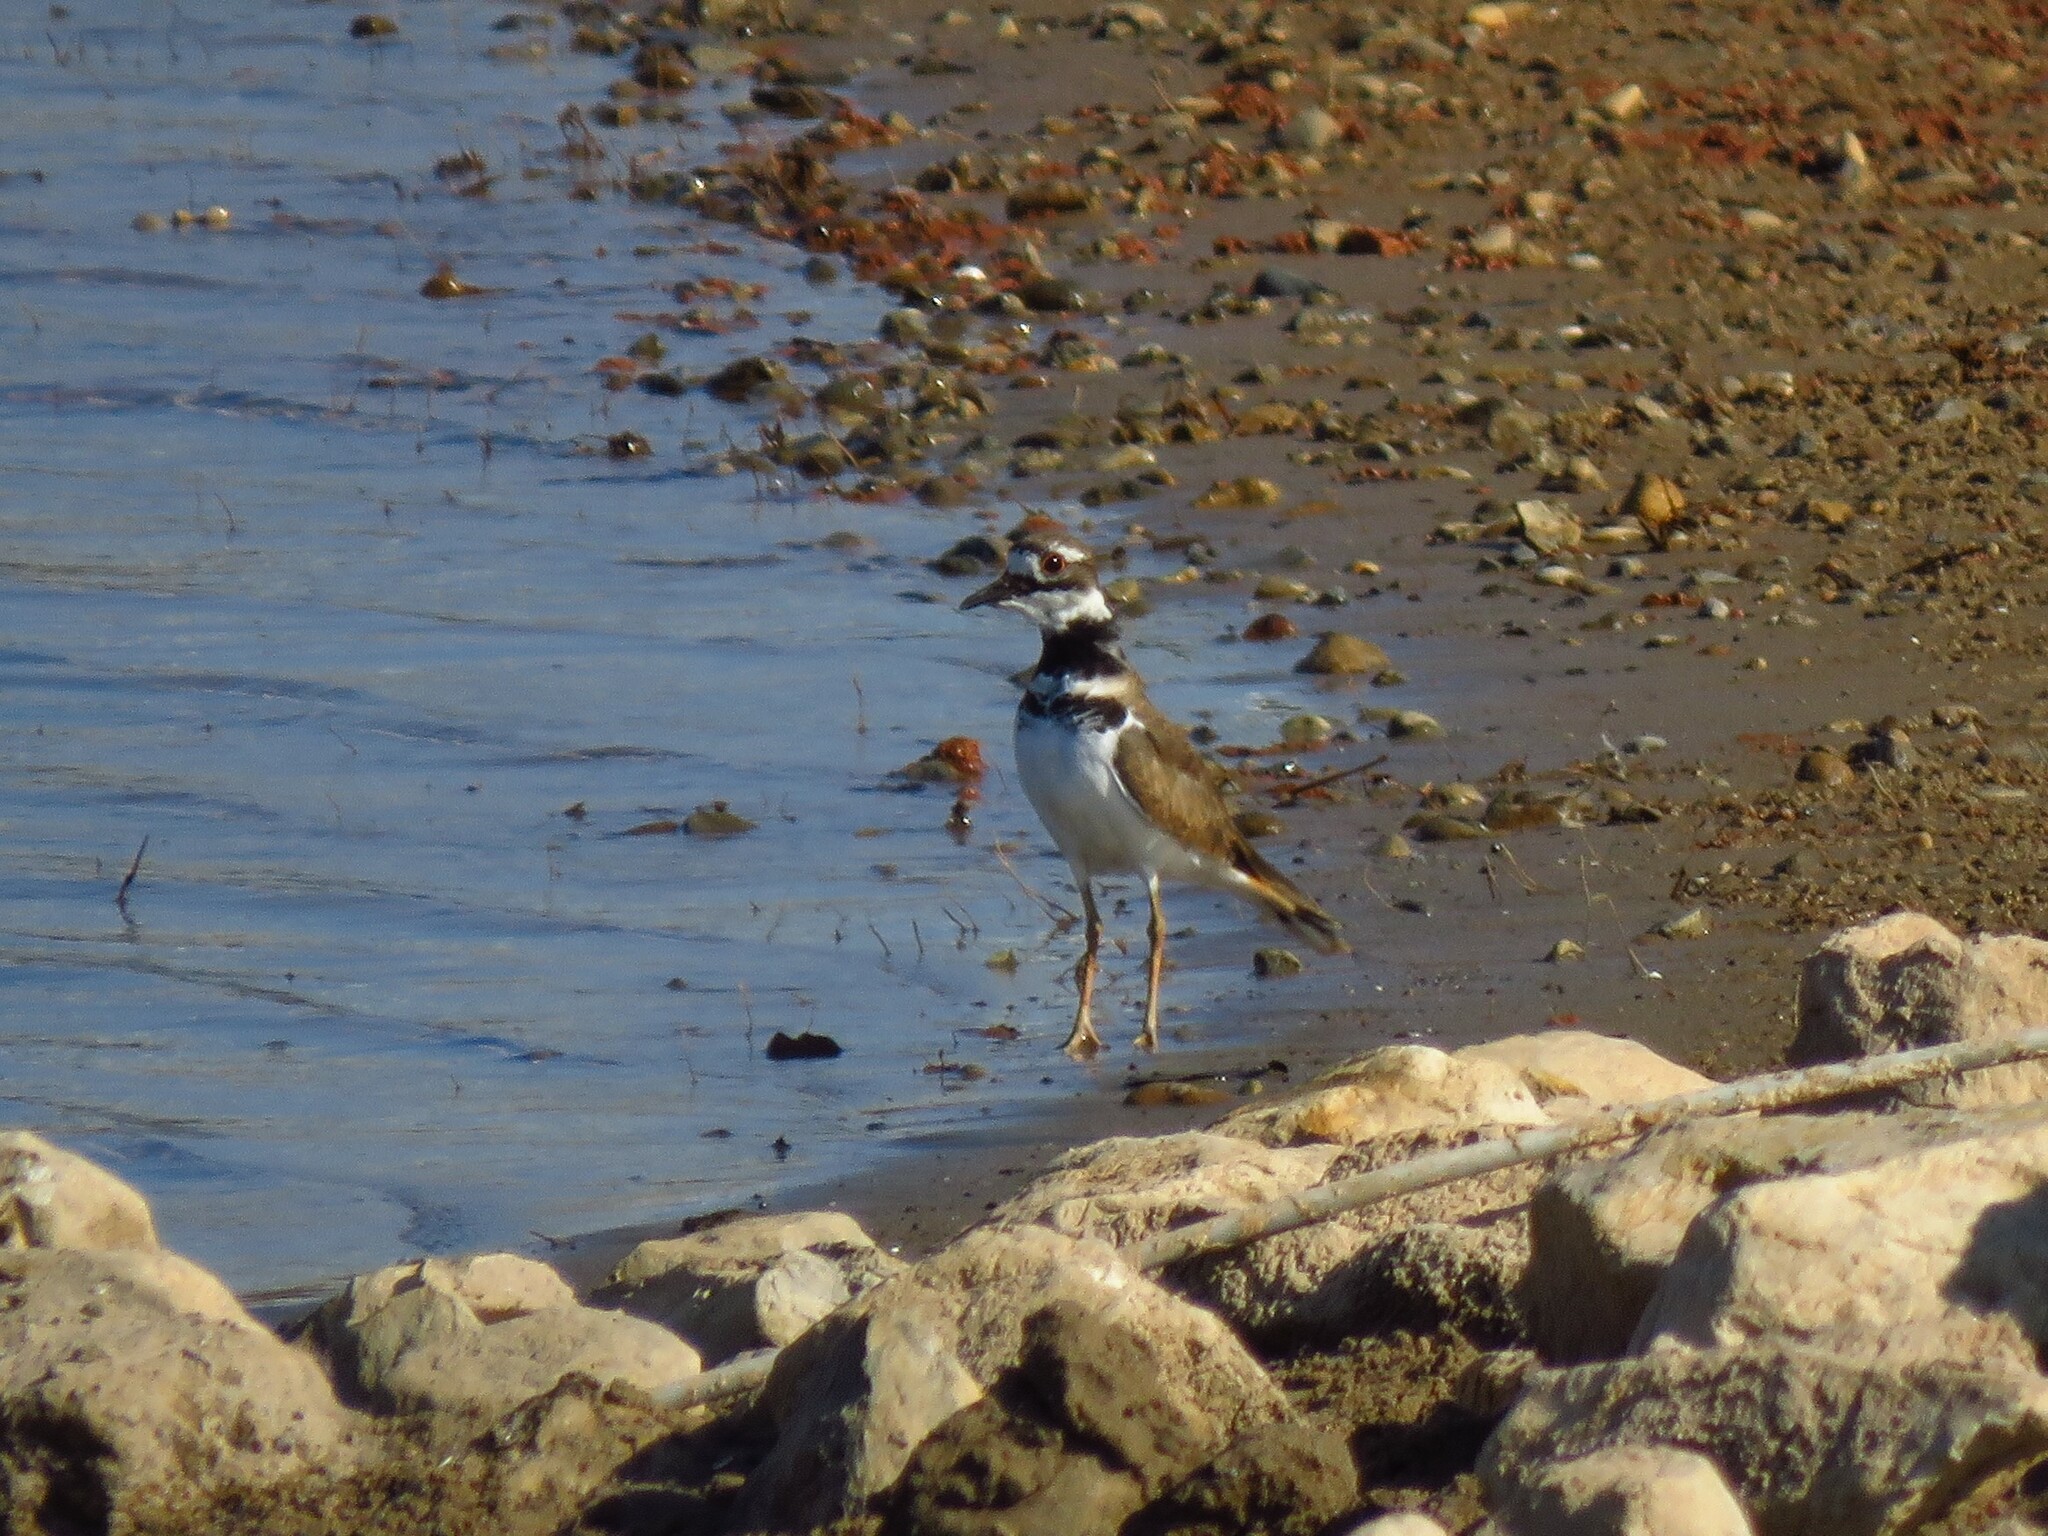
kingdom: Animalia
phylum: Chordata
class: Aves
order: Charadriiformes
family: Charadriidae
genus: Charadrius
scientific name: Charadrius vociferus
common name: Killdeer
